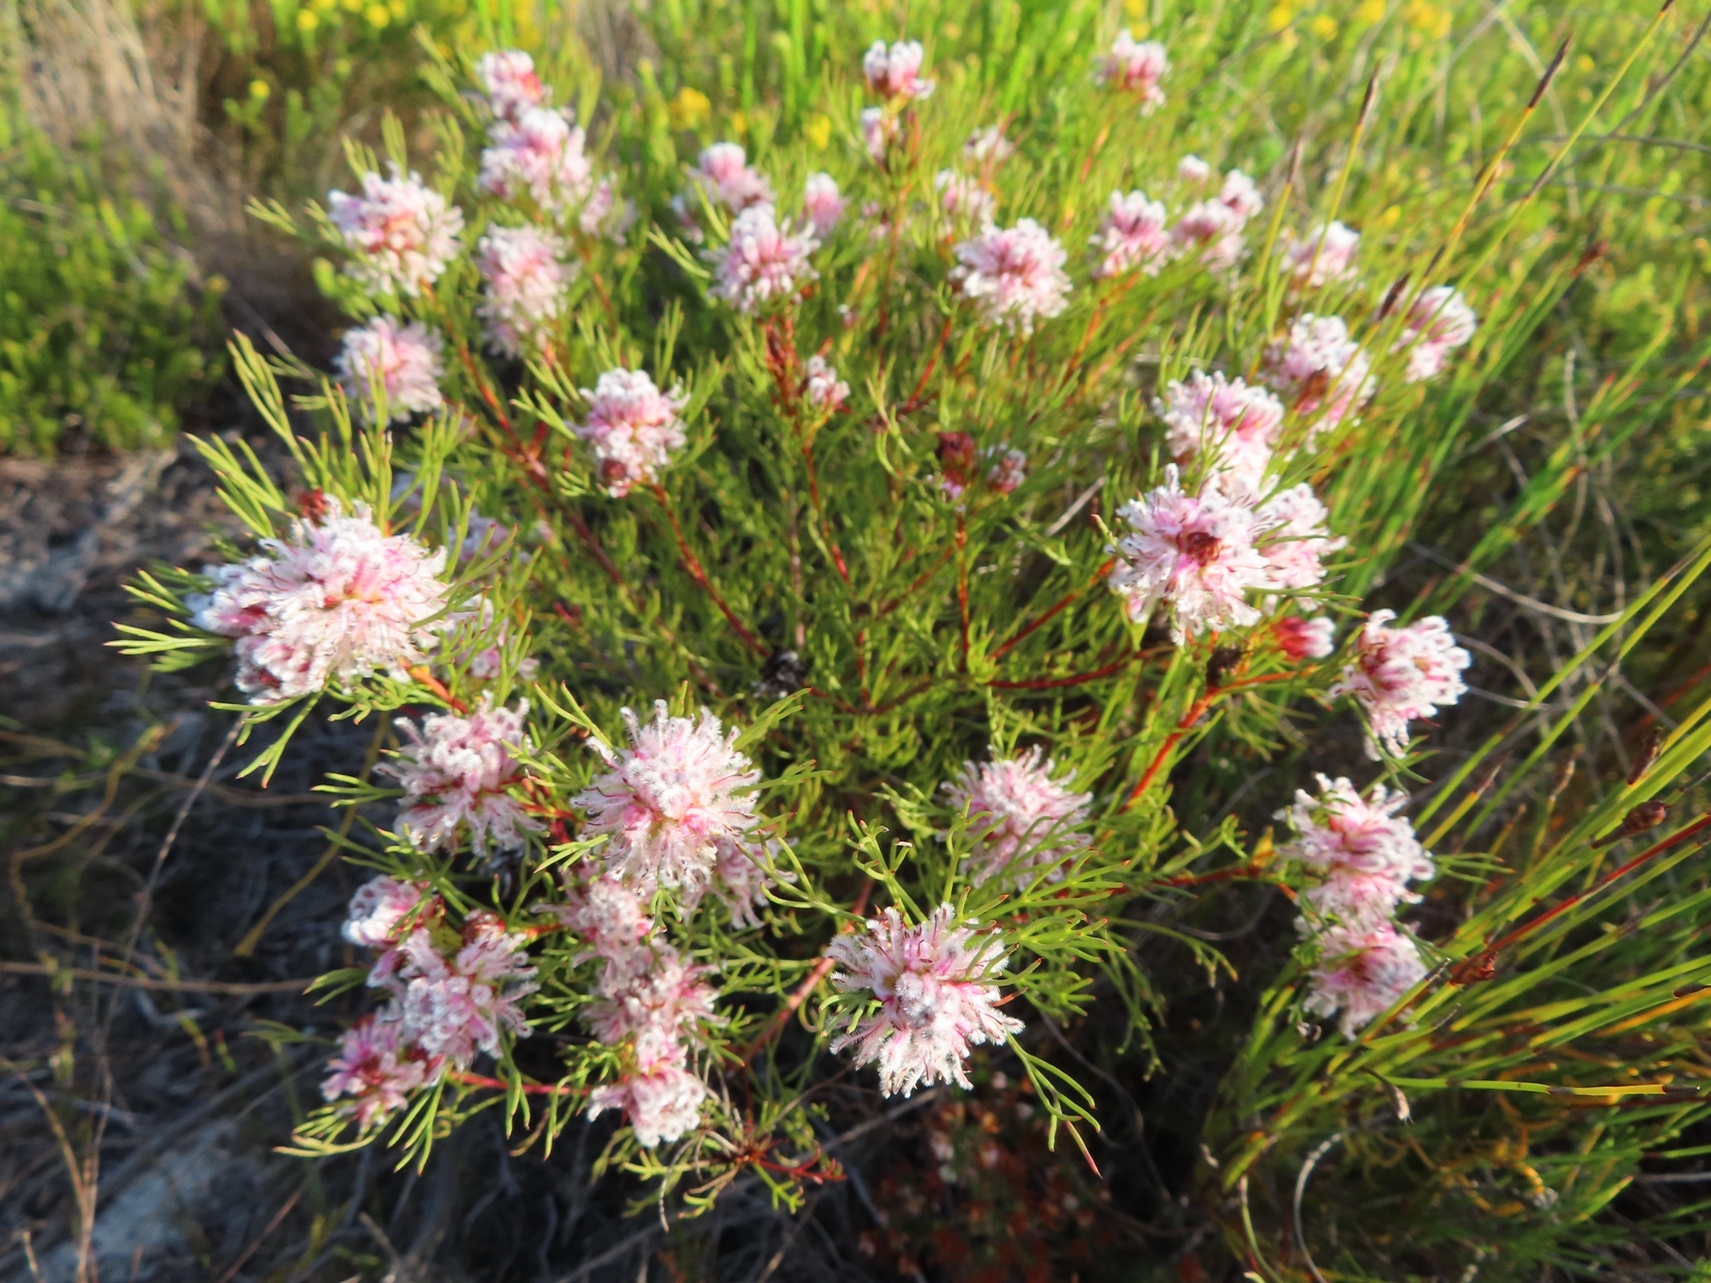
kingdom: Plantae
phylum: Tracheophyta
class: Magnoliopsida
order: Proteales
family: Proteaceae
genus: Serruria
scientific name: Serruria nervosa
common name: Fluted spiderhead
